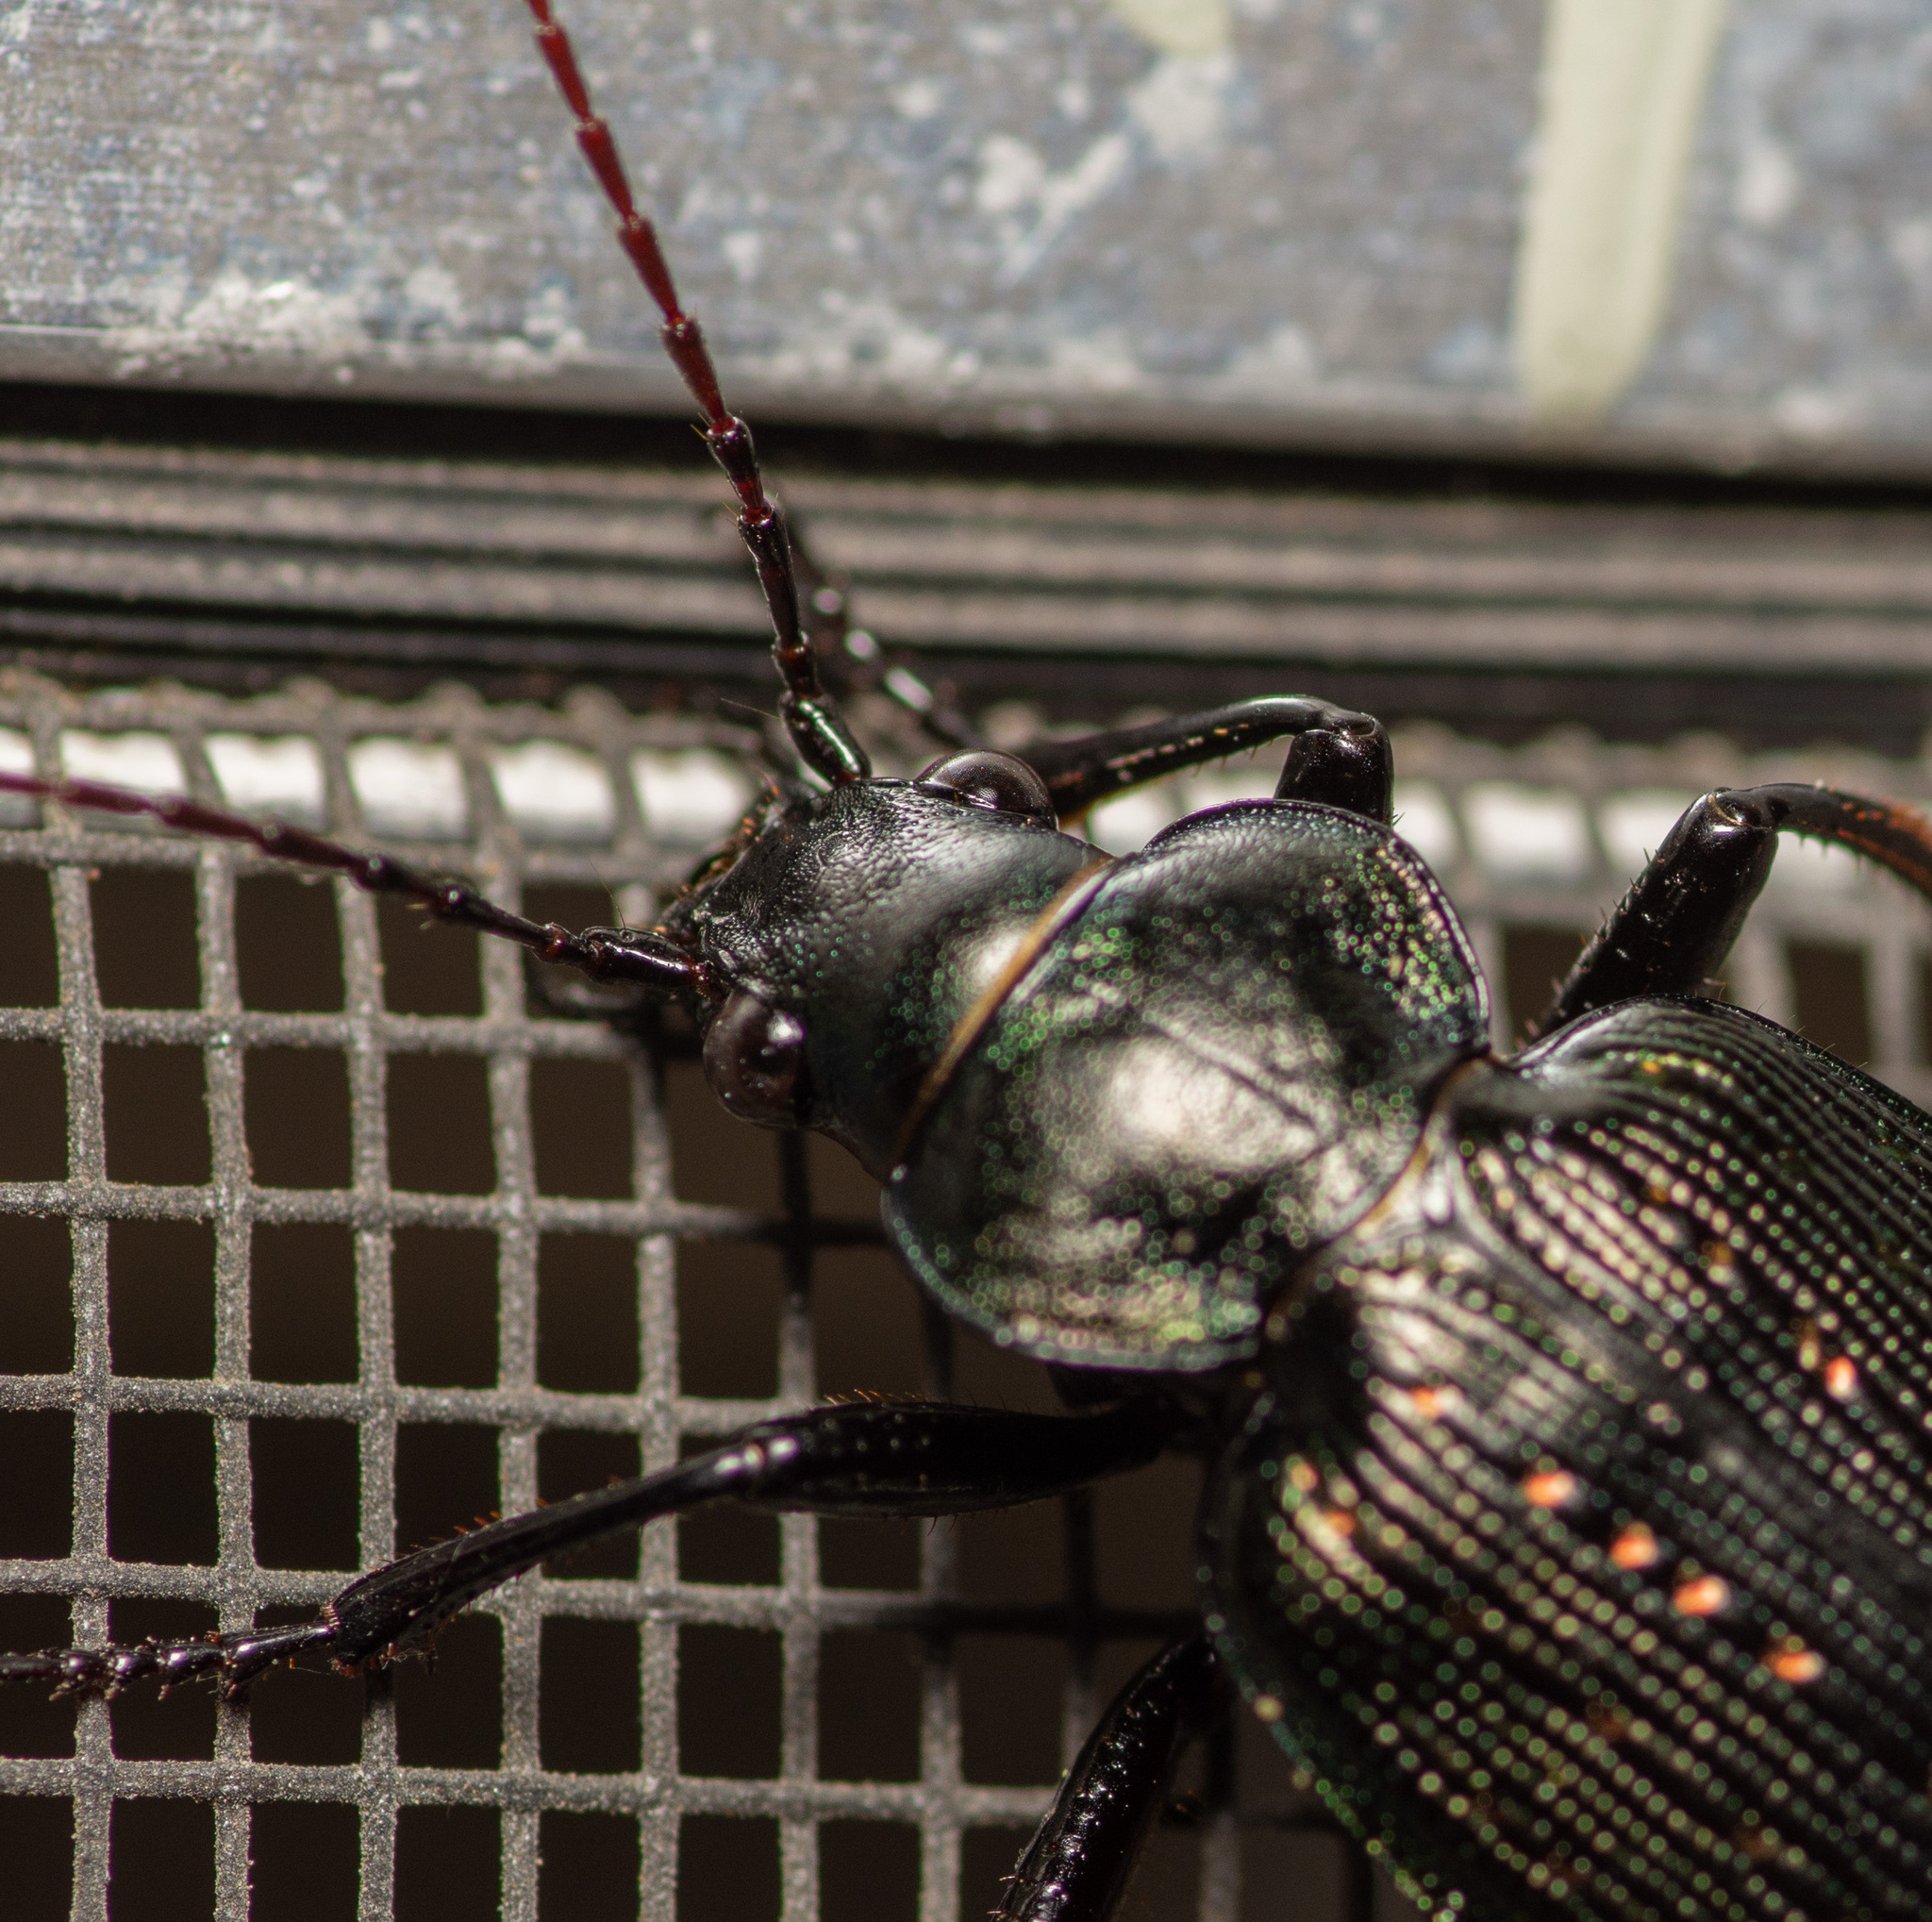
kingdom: Animalia
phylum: Arthropoda
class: Insecta
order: Coleoptera
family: Carabidae
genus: Calosoma
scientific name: Calosoma sayi
